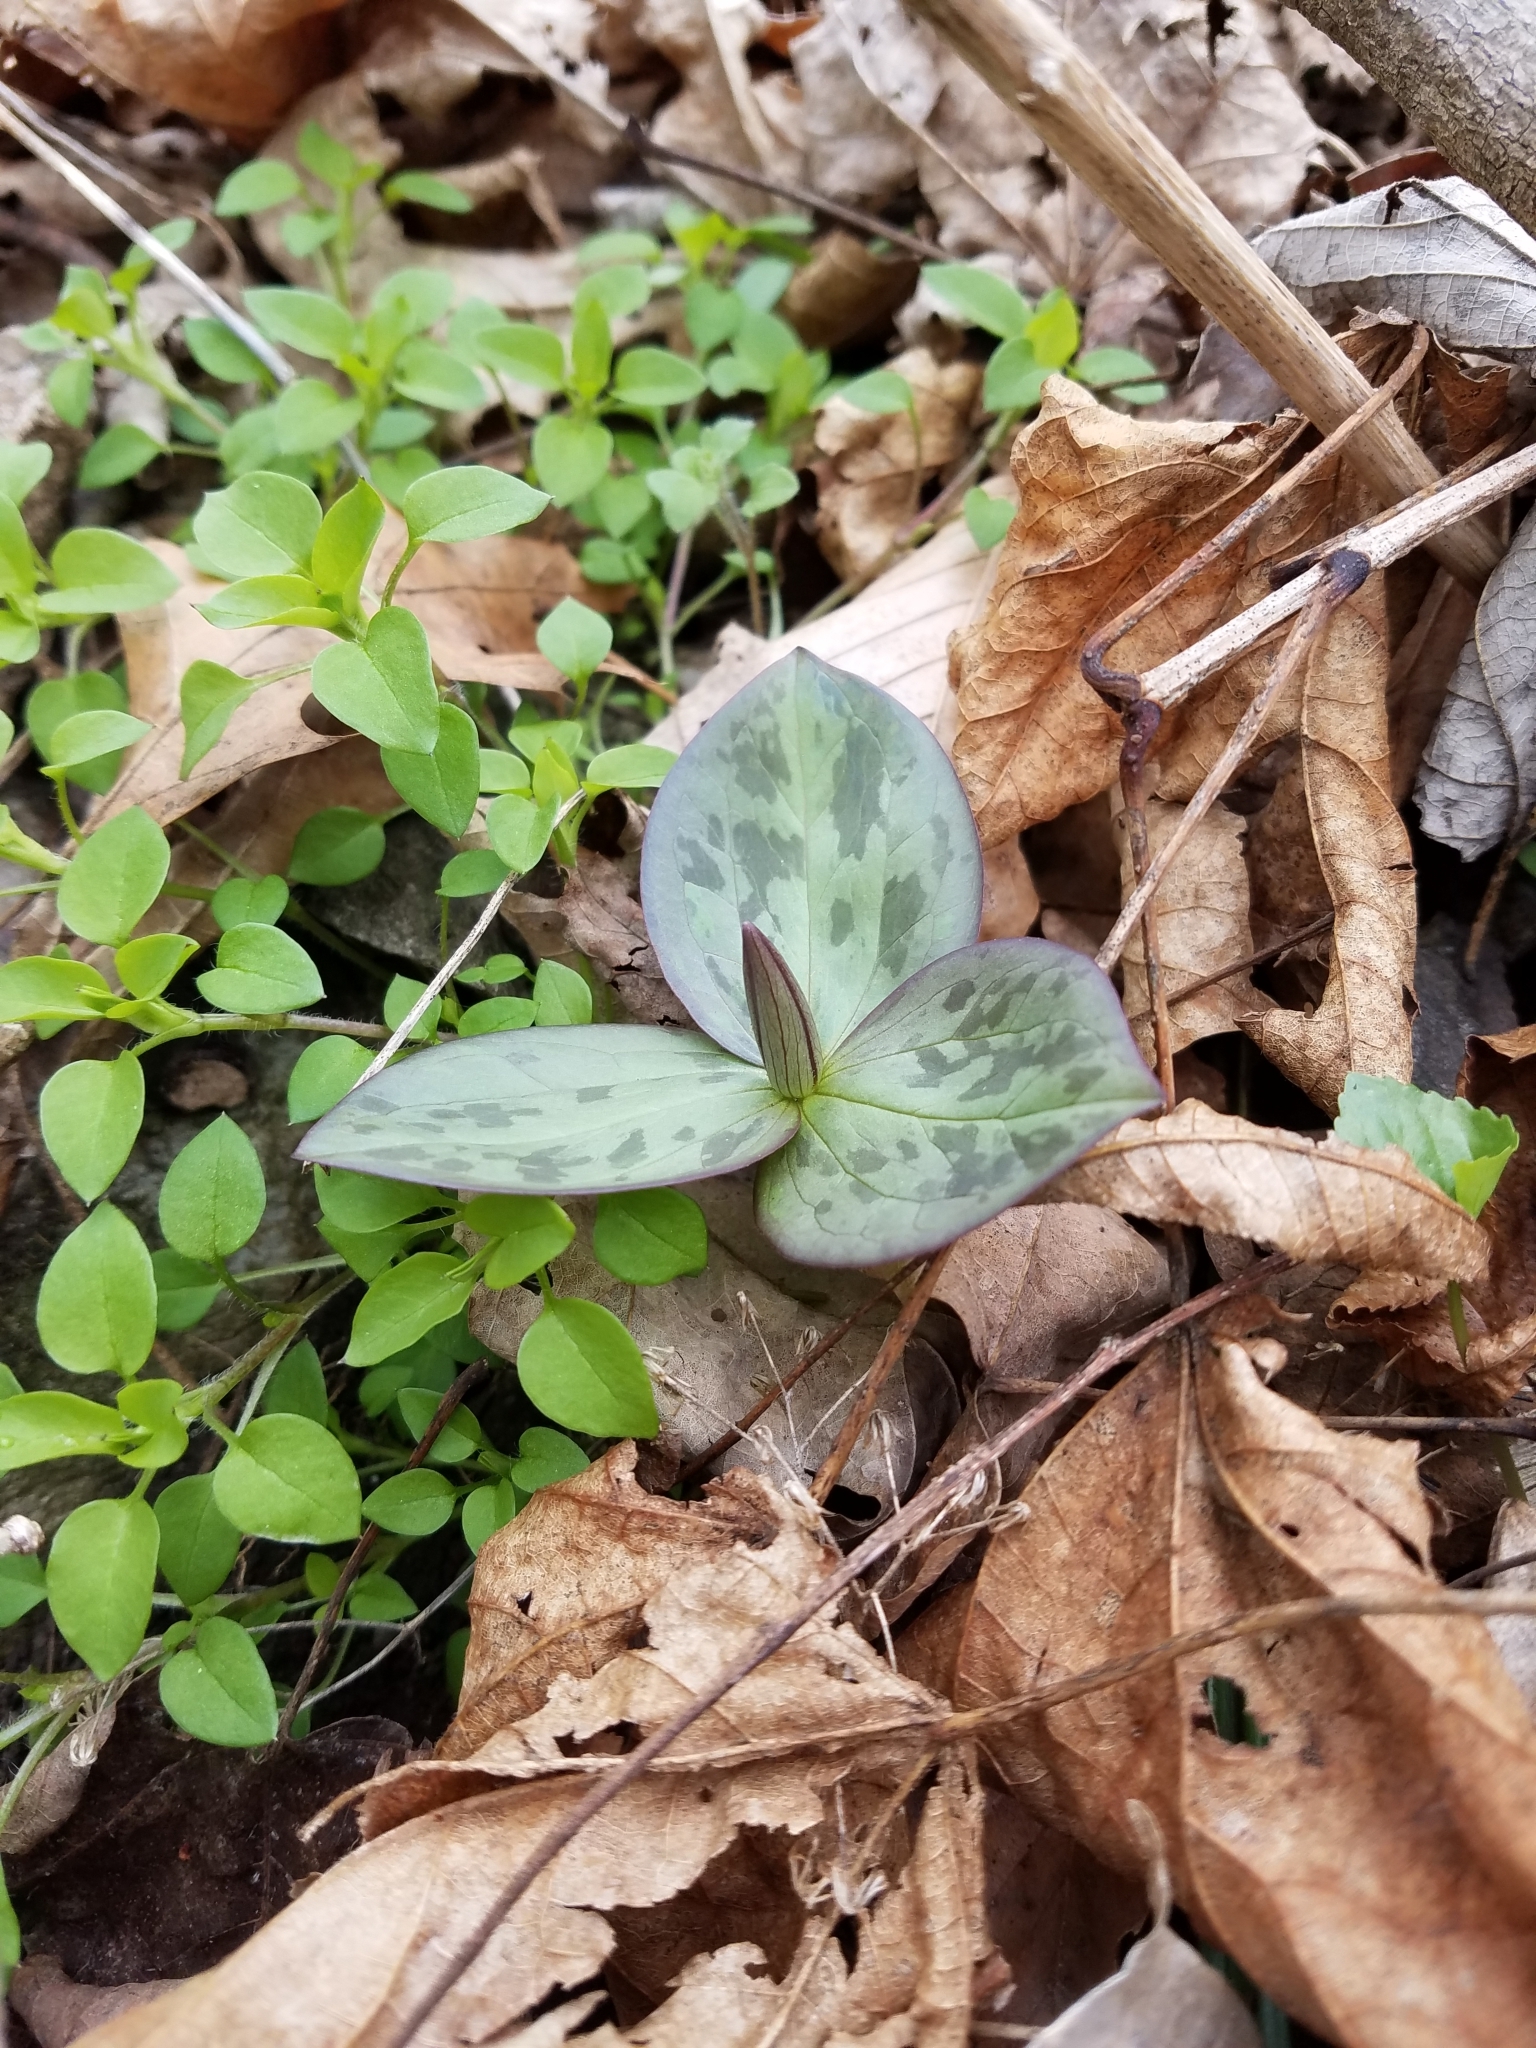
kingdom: Plantae
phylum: Tracheophyta
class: Liliopsida
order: Liliales
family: Melanthiaceae
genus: Trillium
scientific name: Trillium sessile
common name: Sessile trillium
